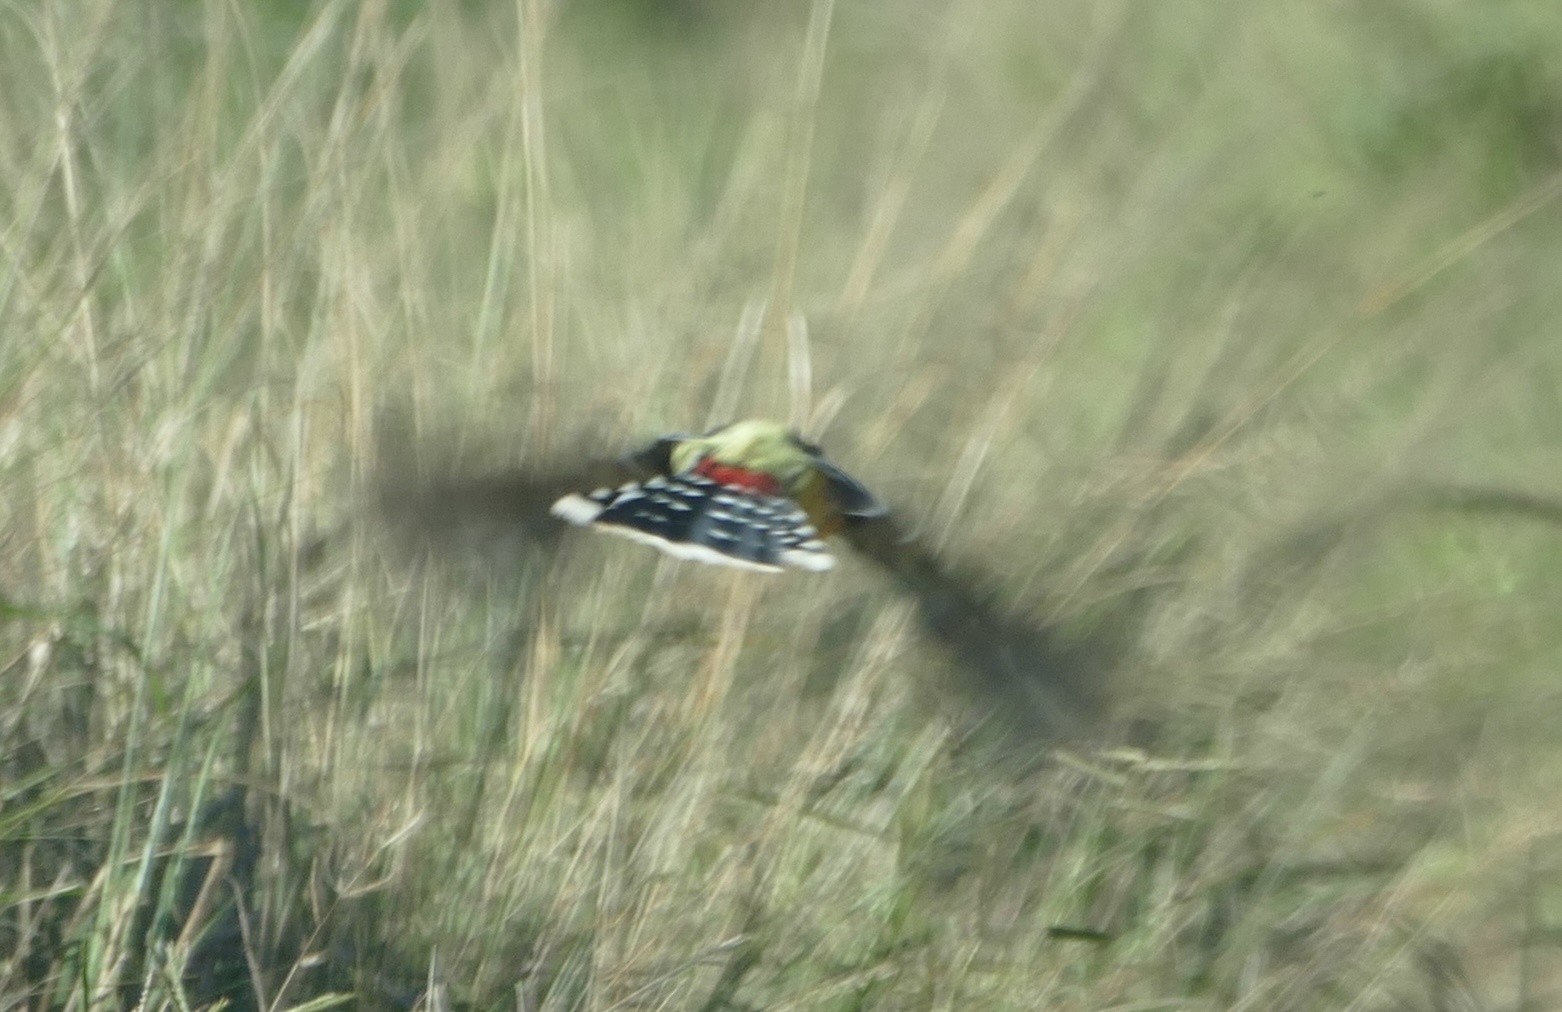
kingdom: Animalia
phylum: Chordata
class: Aves
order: Piciformes
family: Lybiidae
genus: Trachyphonus
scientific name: Trachyphonus vaillantii
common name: Crested barbet
